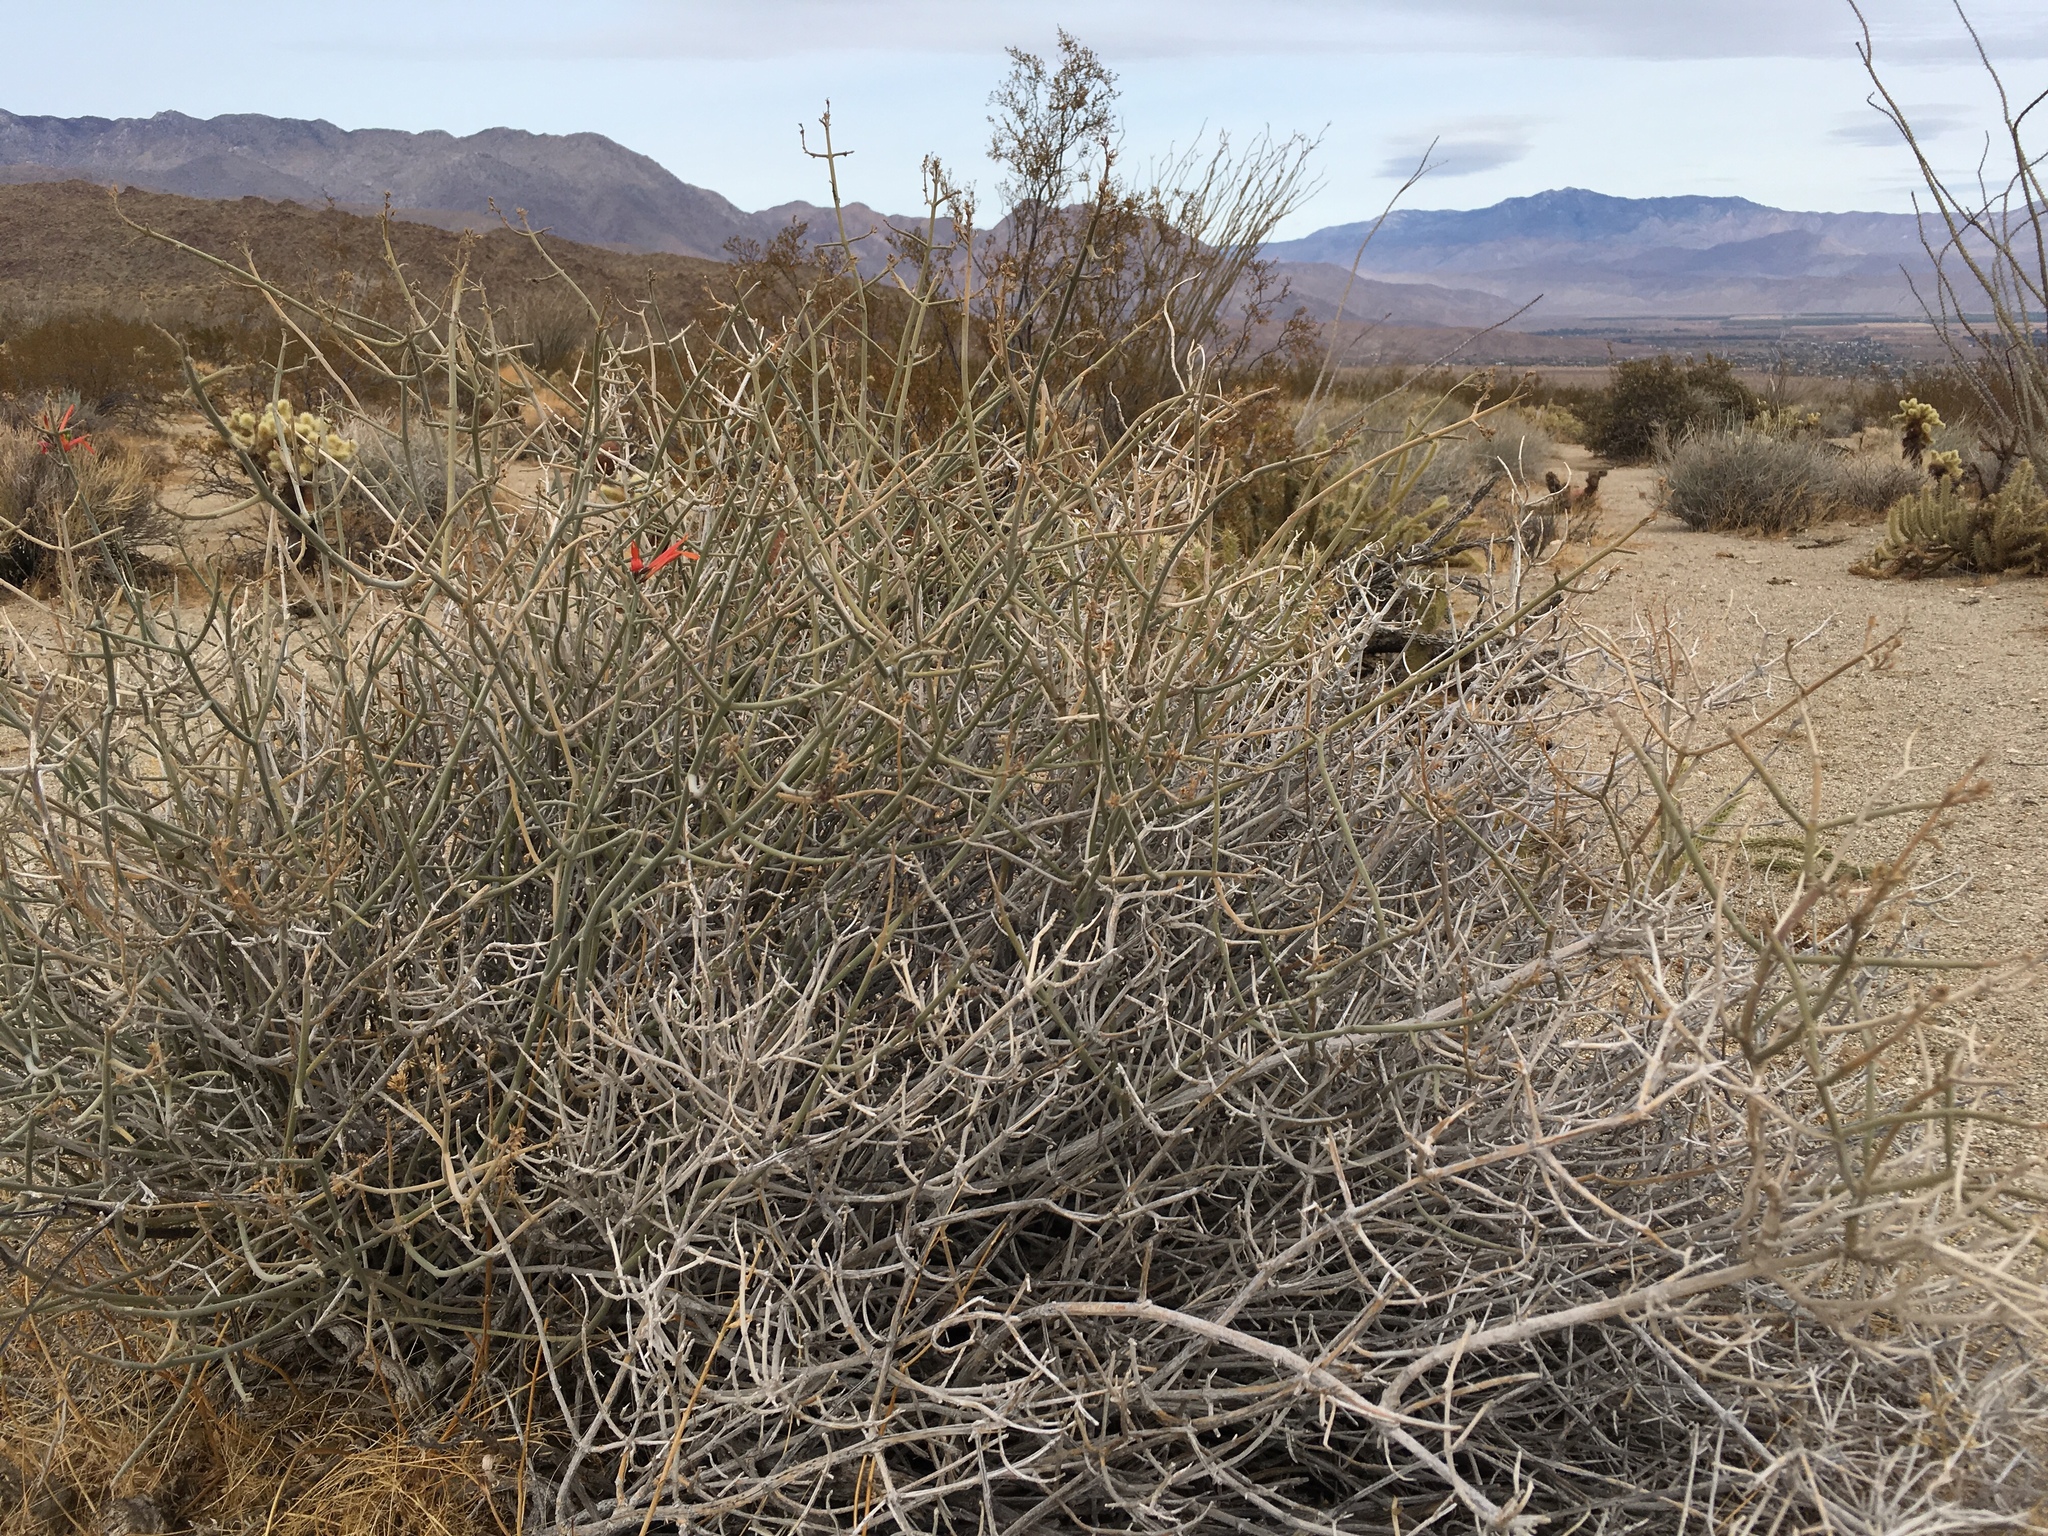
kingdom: Plantae
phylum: Tracheophyta
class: Magnoliopsida
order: Lamiales
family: Acanthaceae
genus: Justicia
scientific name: Justicia californica
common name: Chuparosa-honeysuckle
